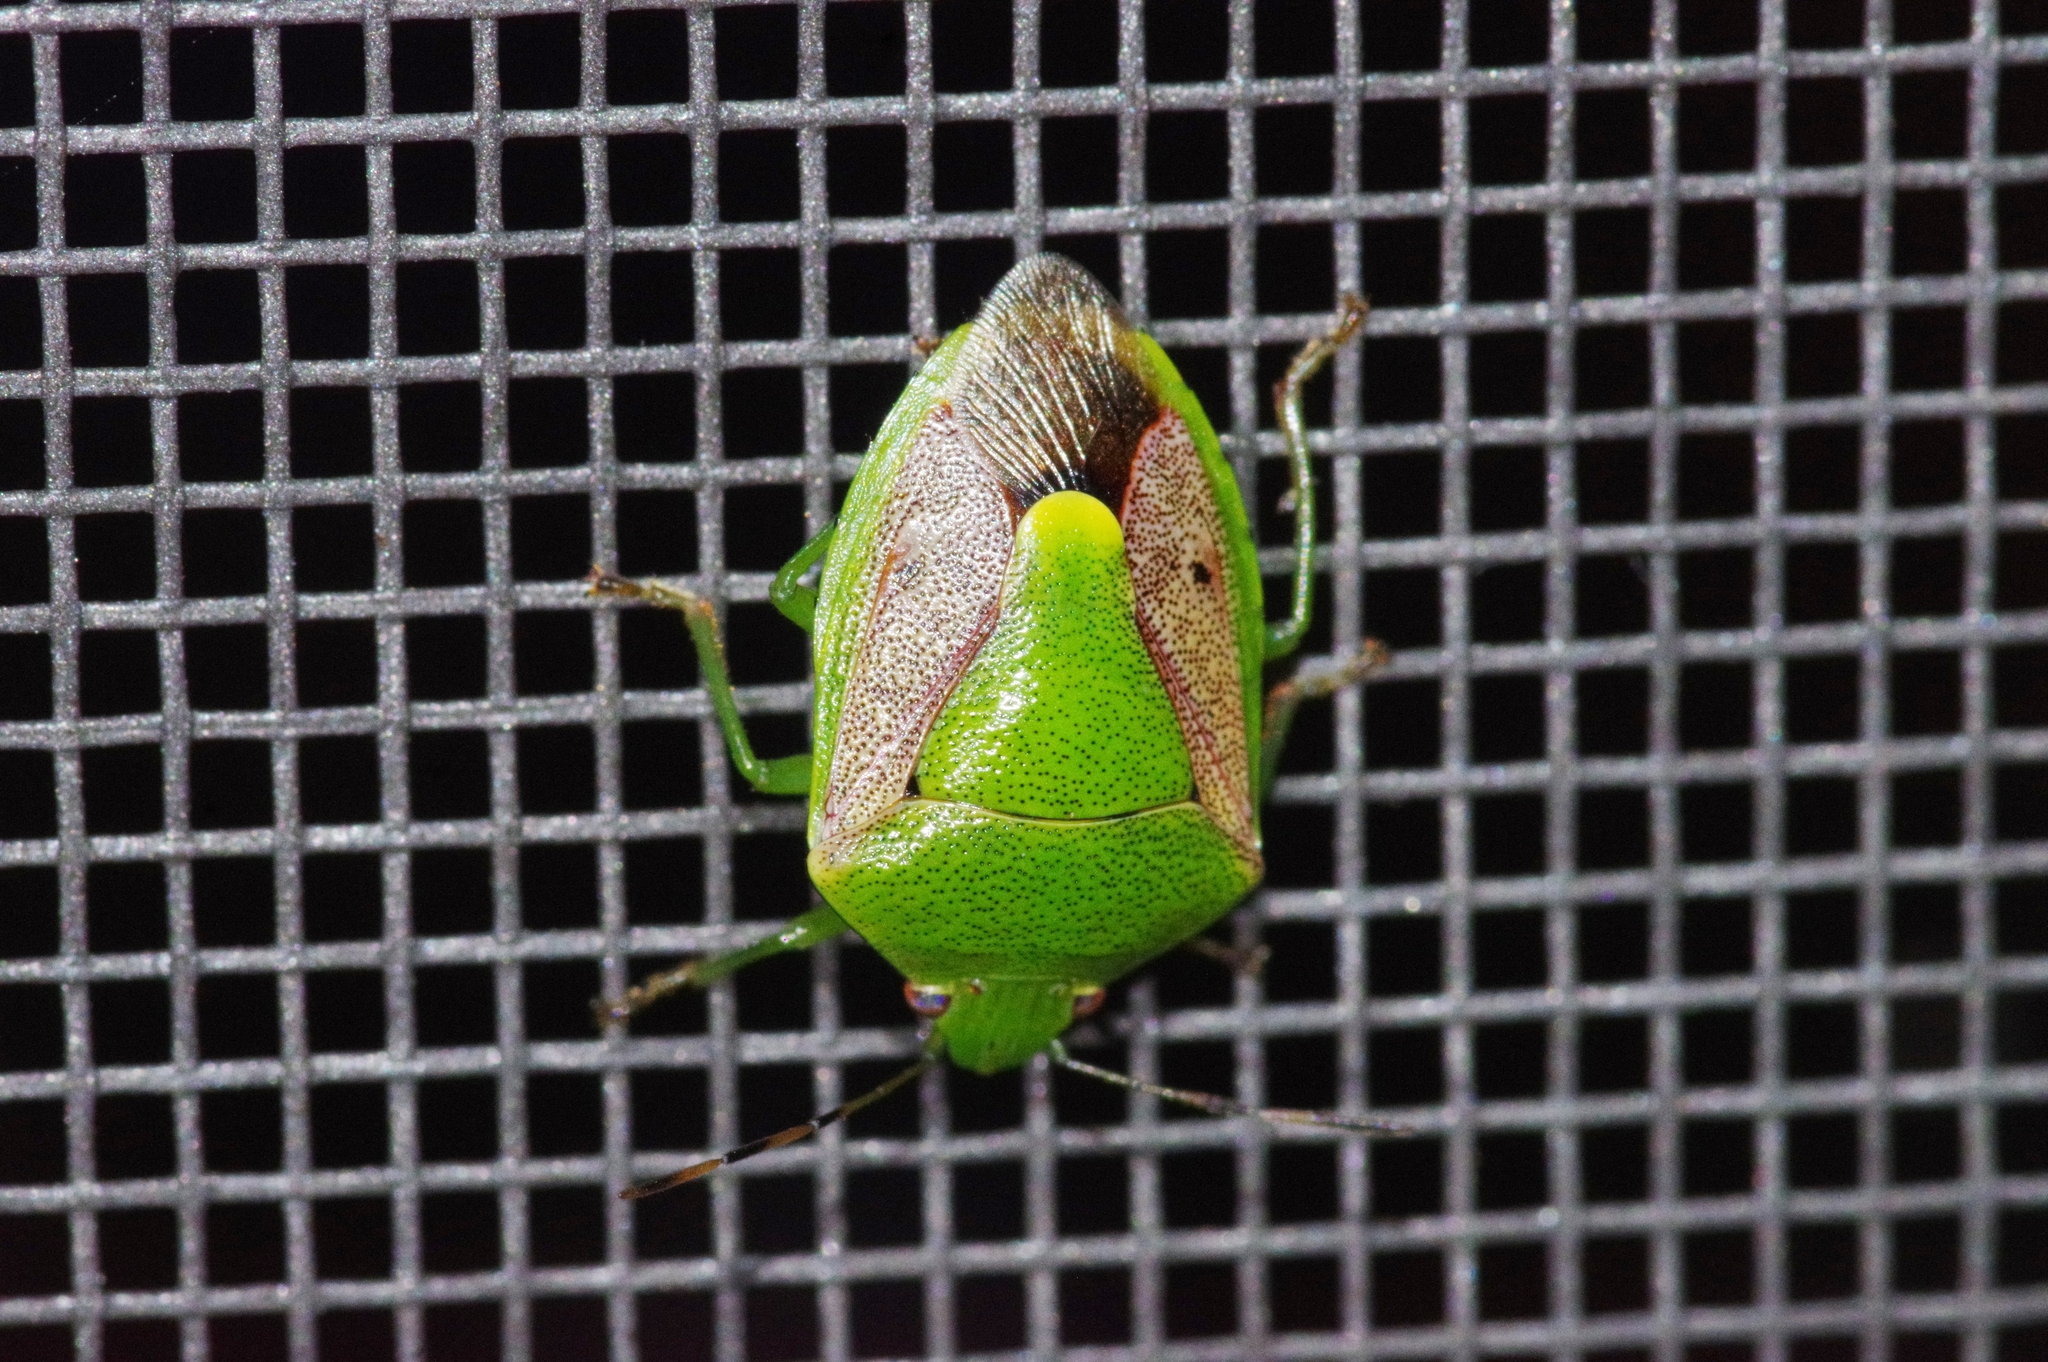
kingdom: Animalia
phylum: Arthropoda
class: Insecta
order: Hemiptera
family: Pentatomidae
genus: Plautia
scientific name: Plautia stali
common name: Stink bug
